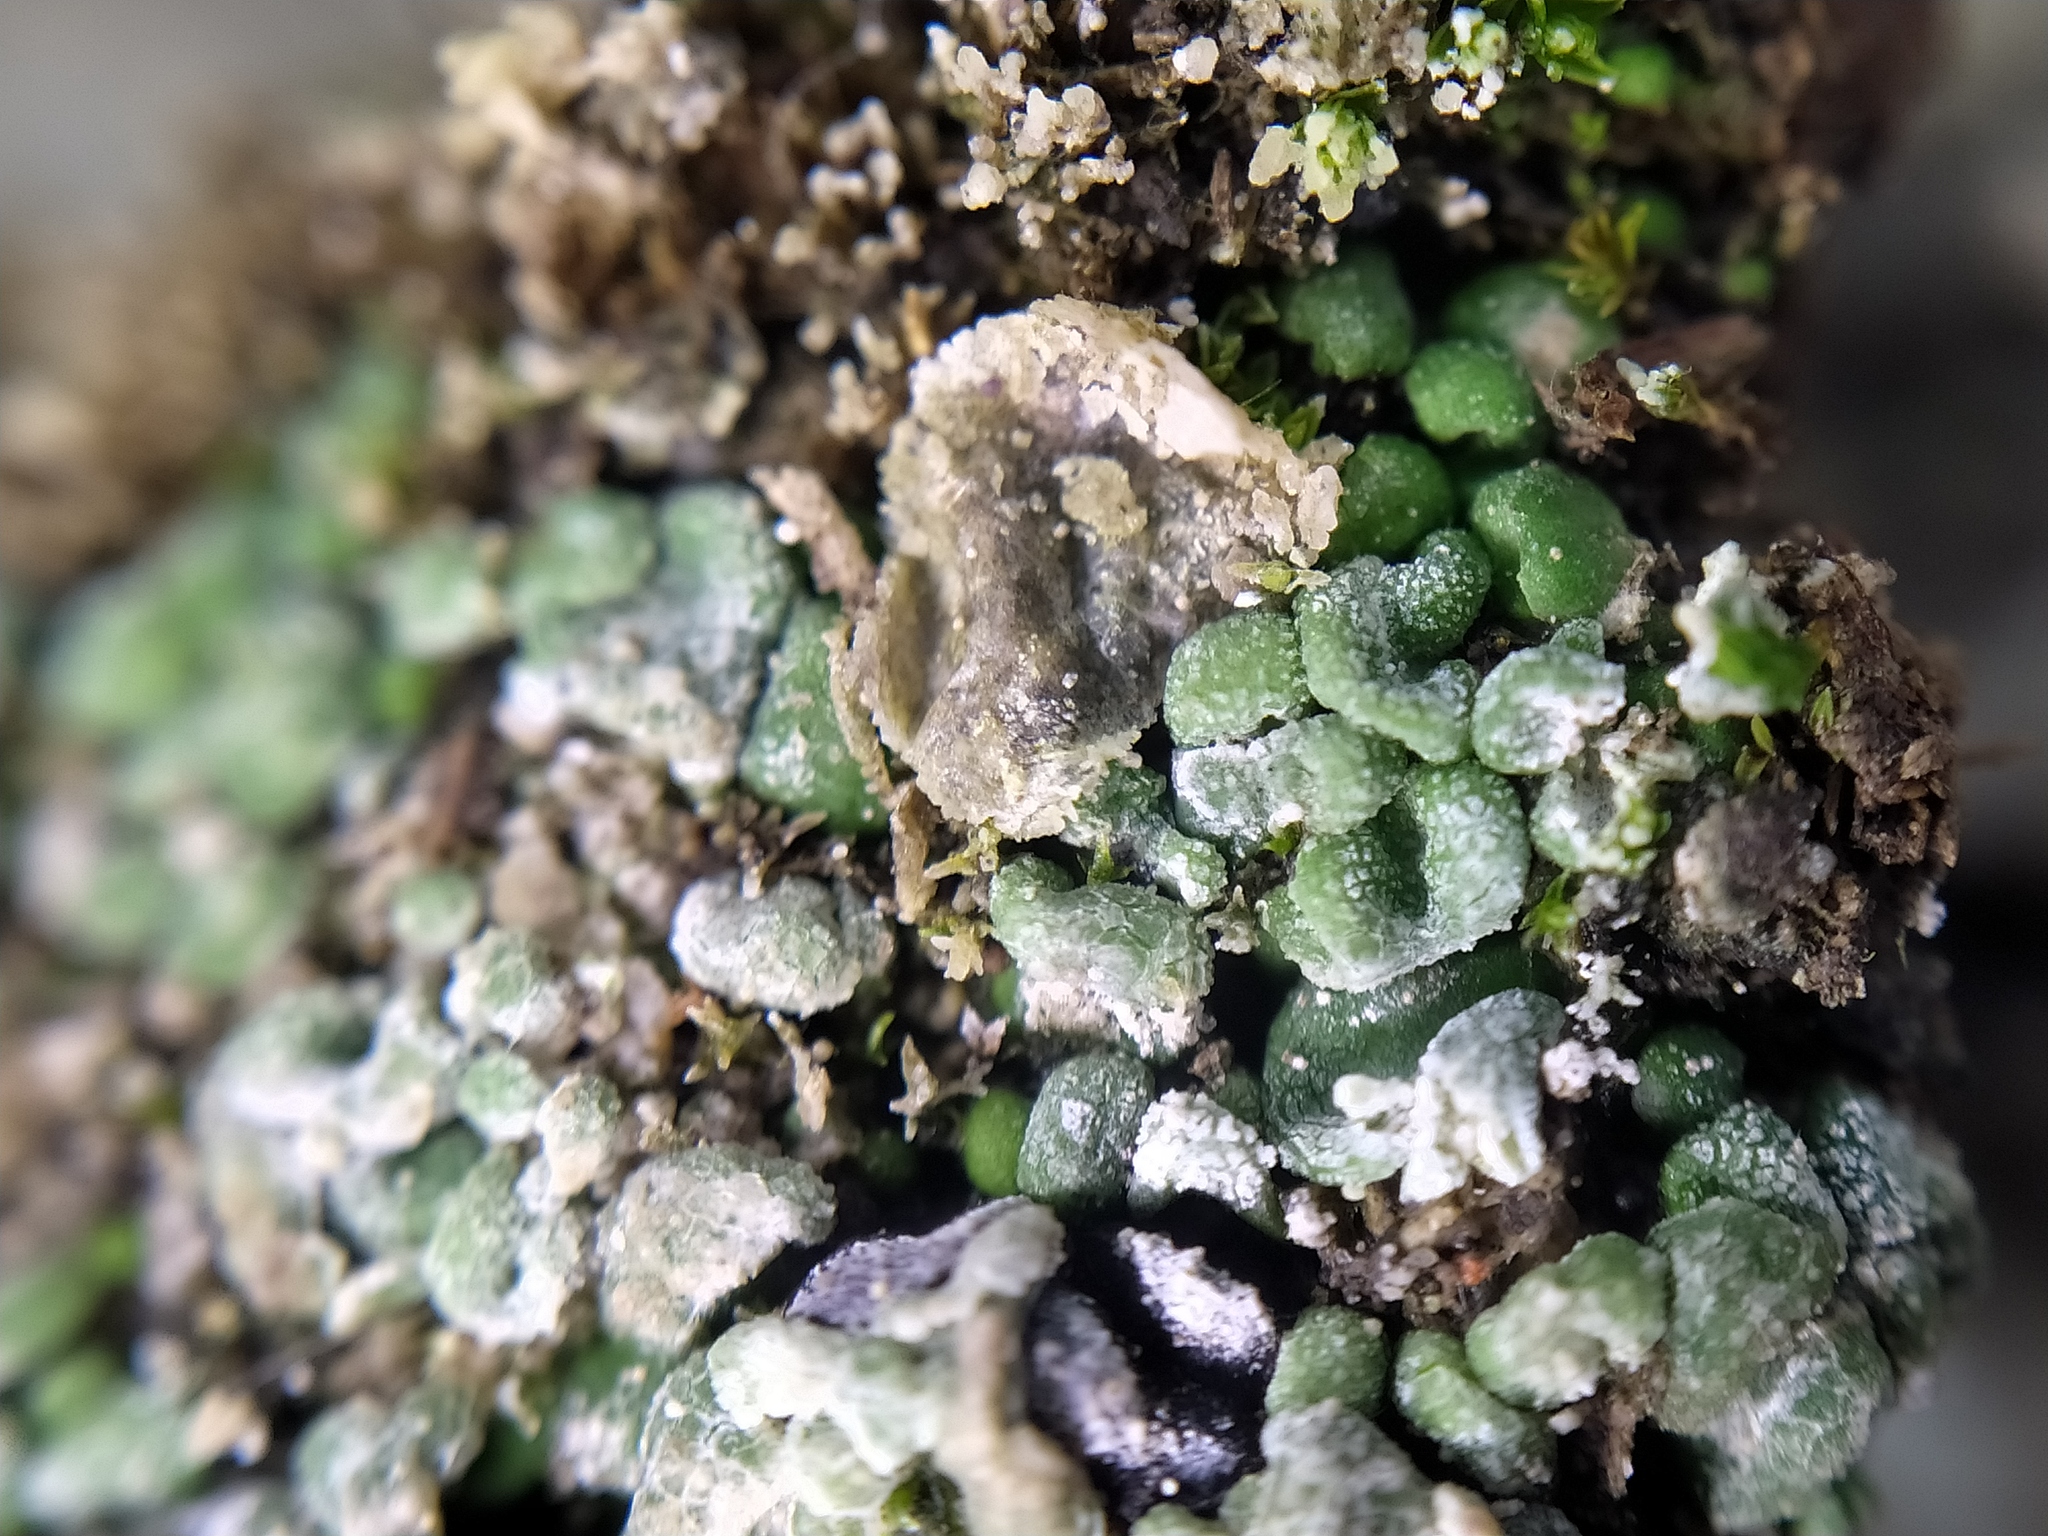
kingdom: Fungi
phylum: Ascomycota
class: Lecanoromycetes
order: Lecanorales
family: Ramalinaceae
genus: Thalloidima
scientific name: Thalloidima sedifolium
